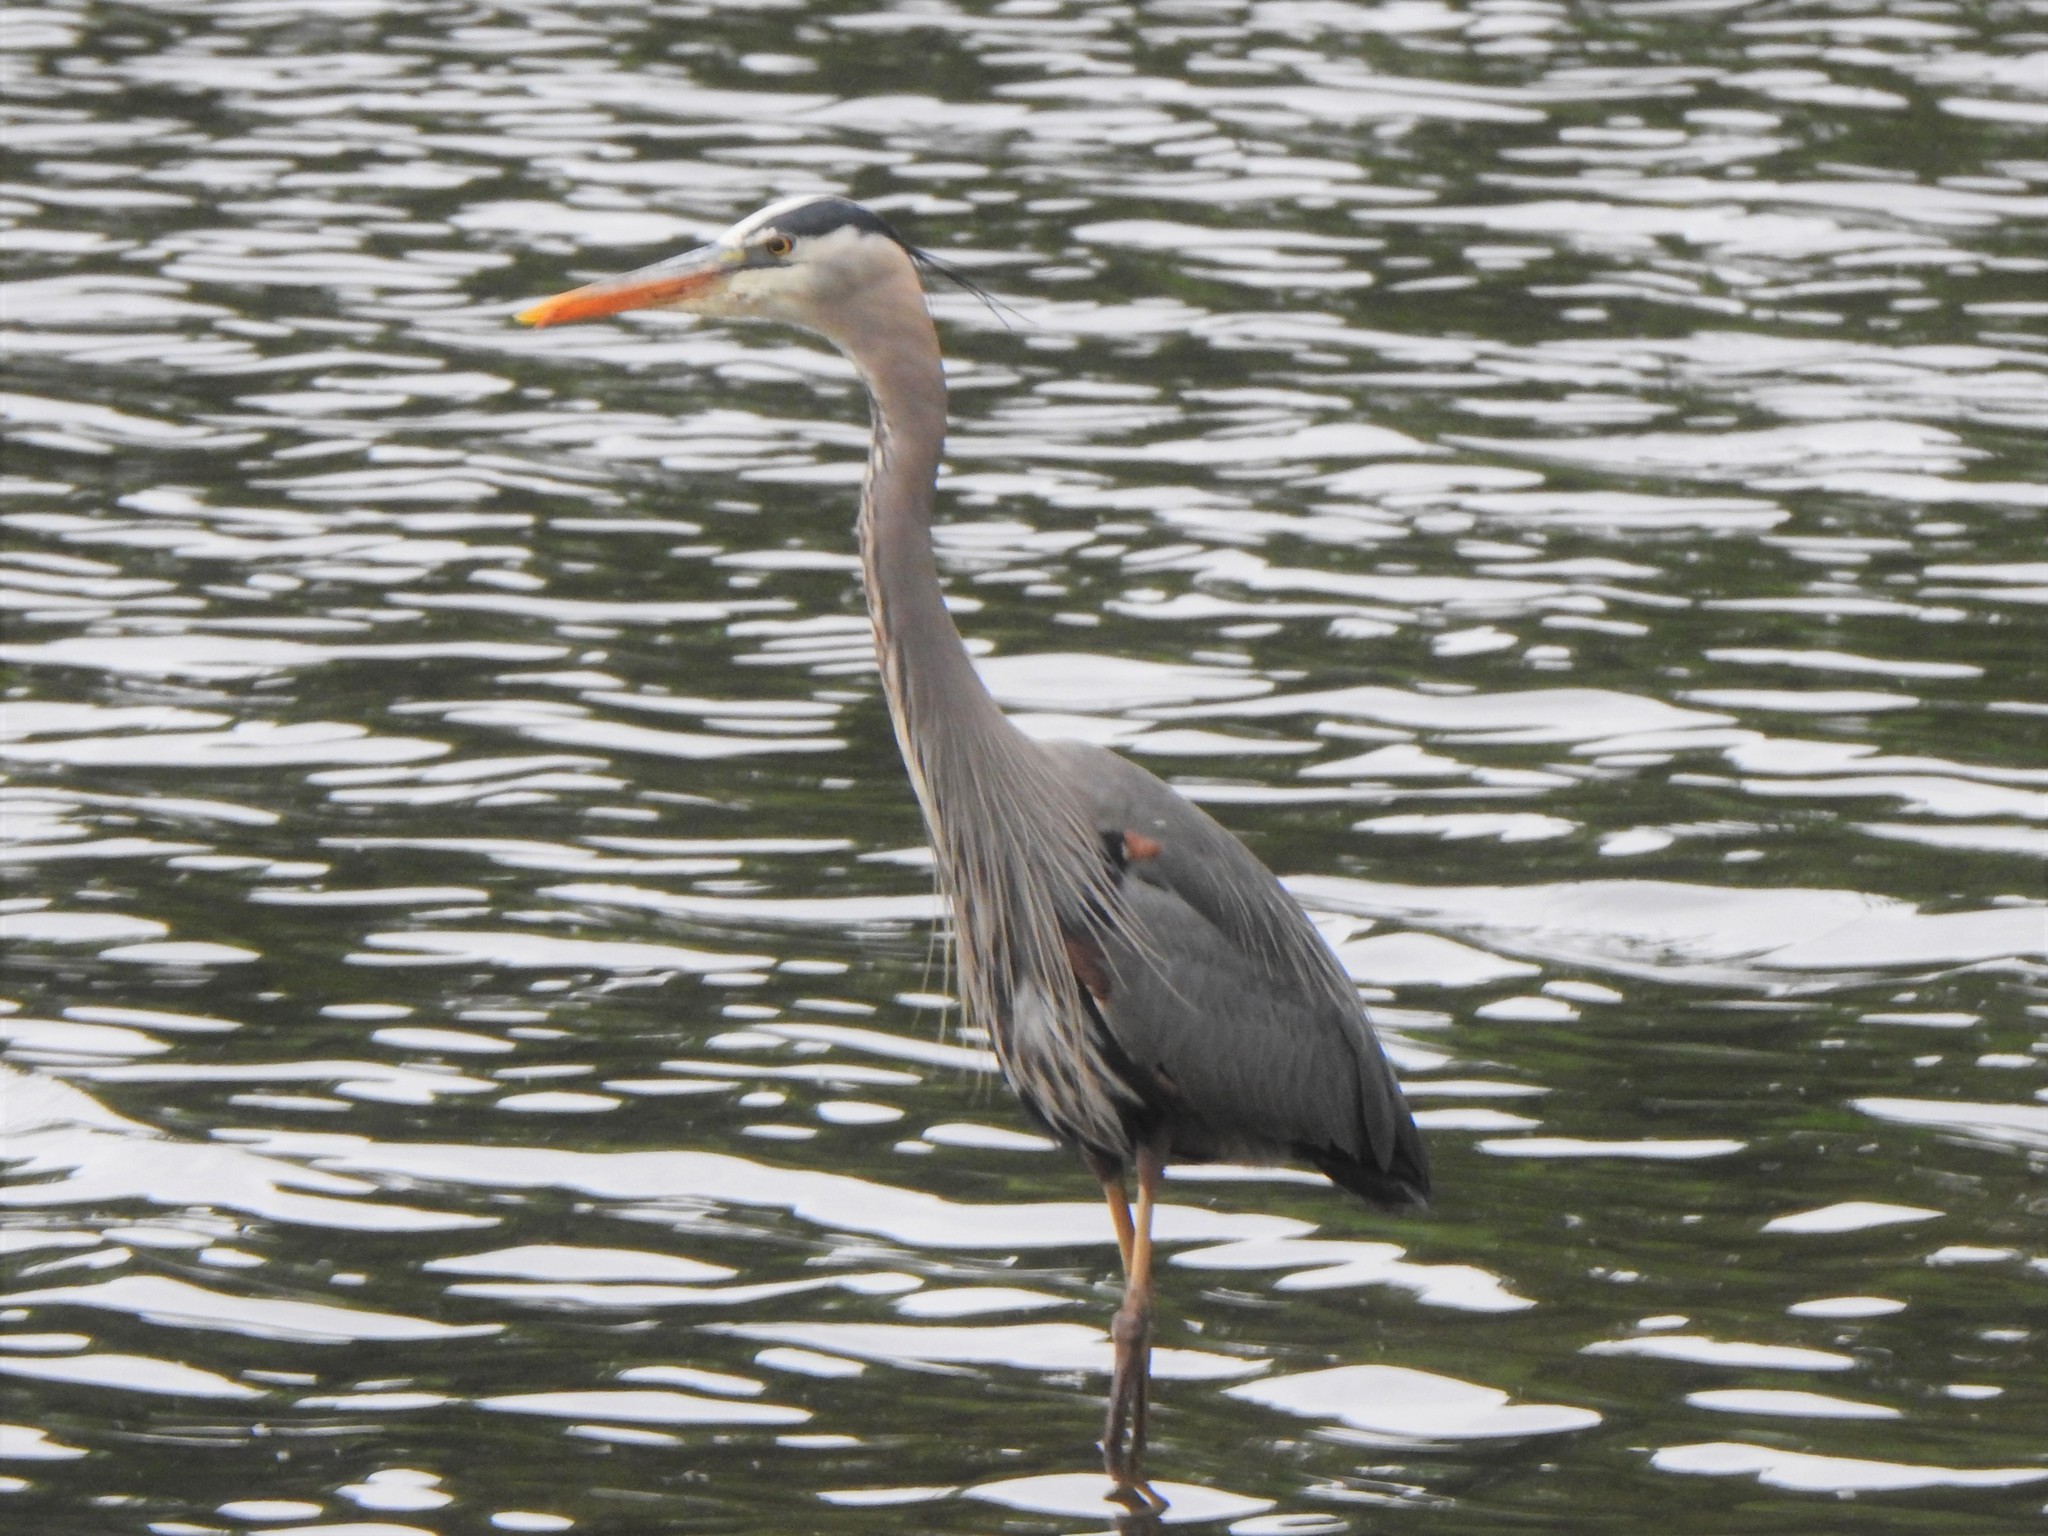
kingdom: Animalia
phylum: Chordata
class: Aves
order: Pelecaniformes
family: Ardeidae
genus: Ardea
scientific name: Ardea herodias
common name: Great blue heron
